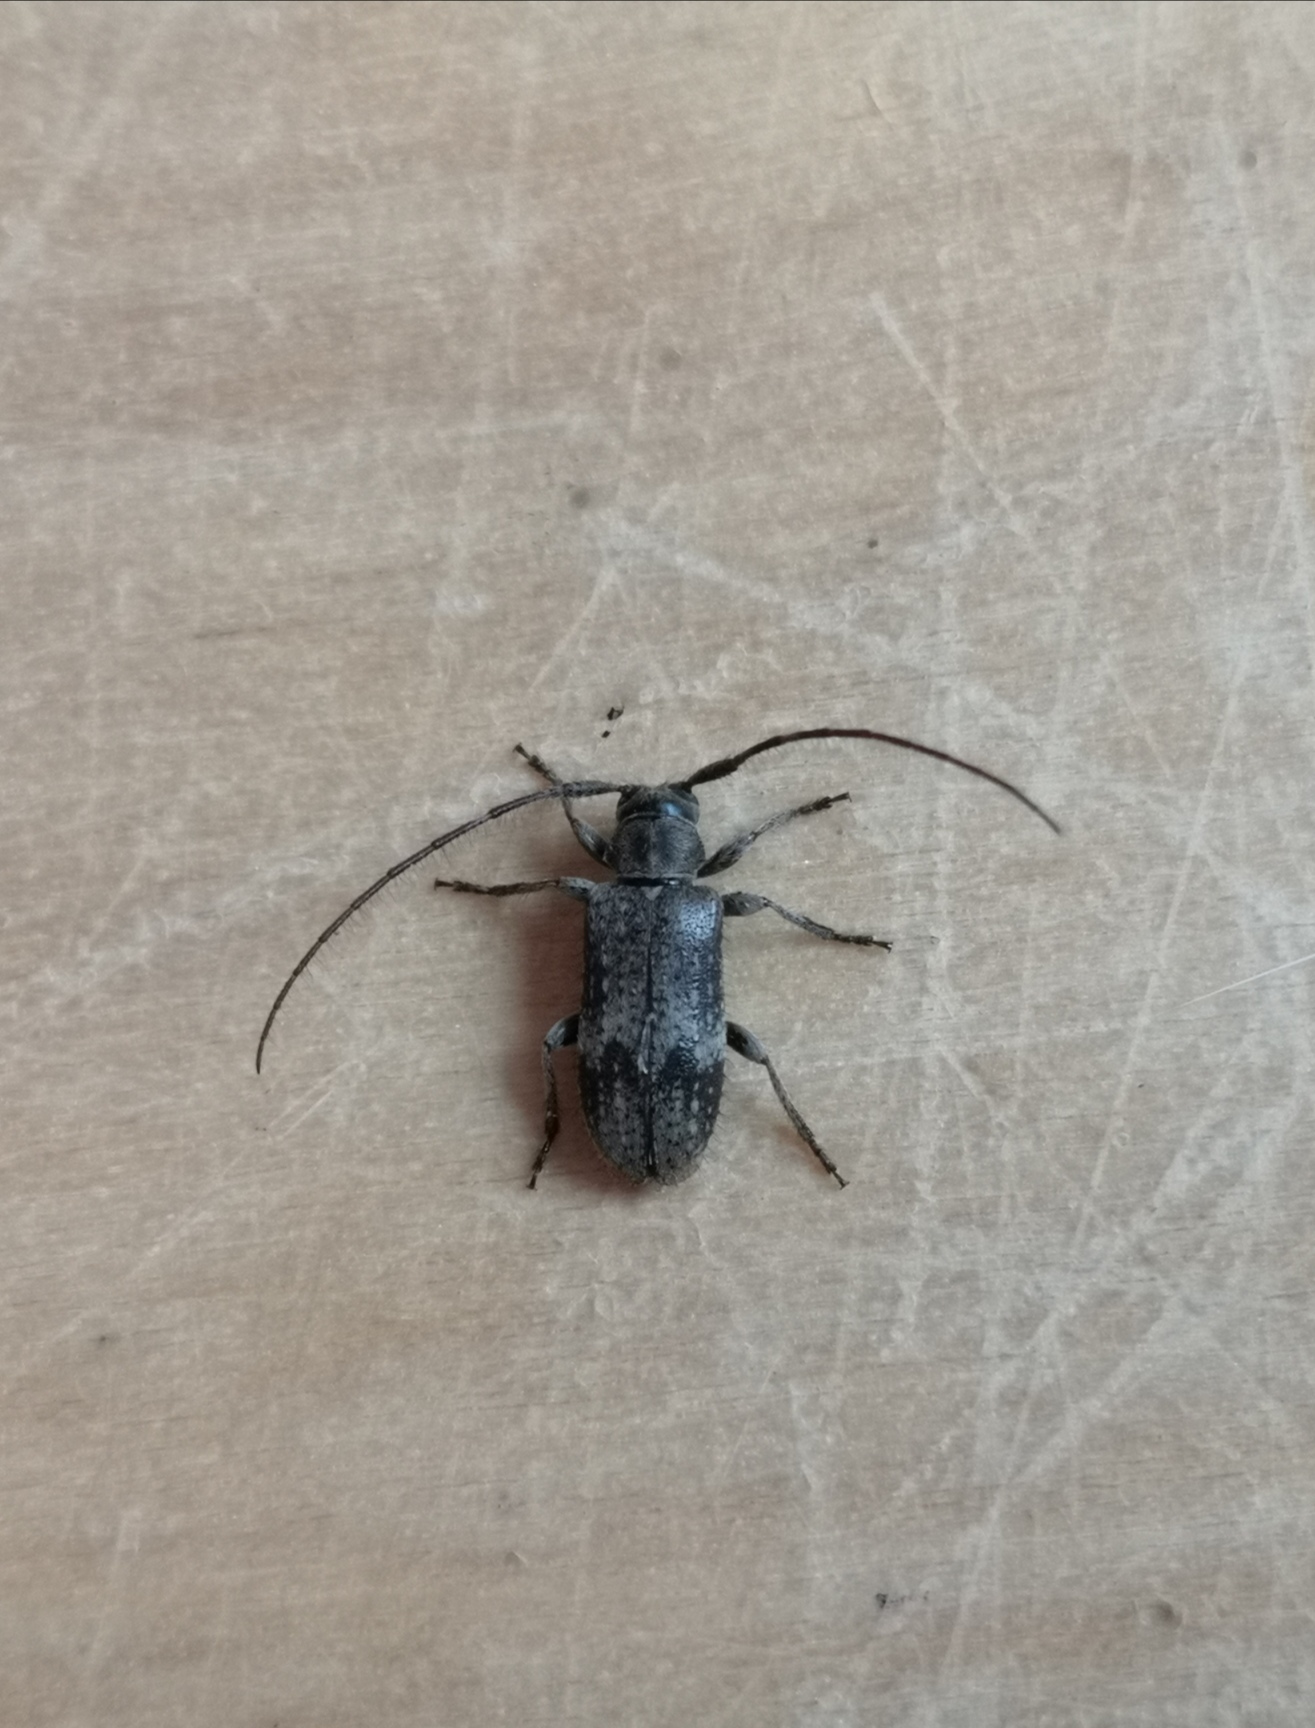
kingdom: Animalia
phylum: Arthropoda
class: Insecta
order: Coleoptera
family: Cerambycidae
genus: Exocentrus
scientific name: Exocentrus adspersus
